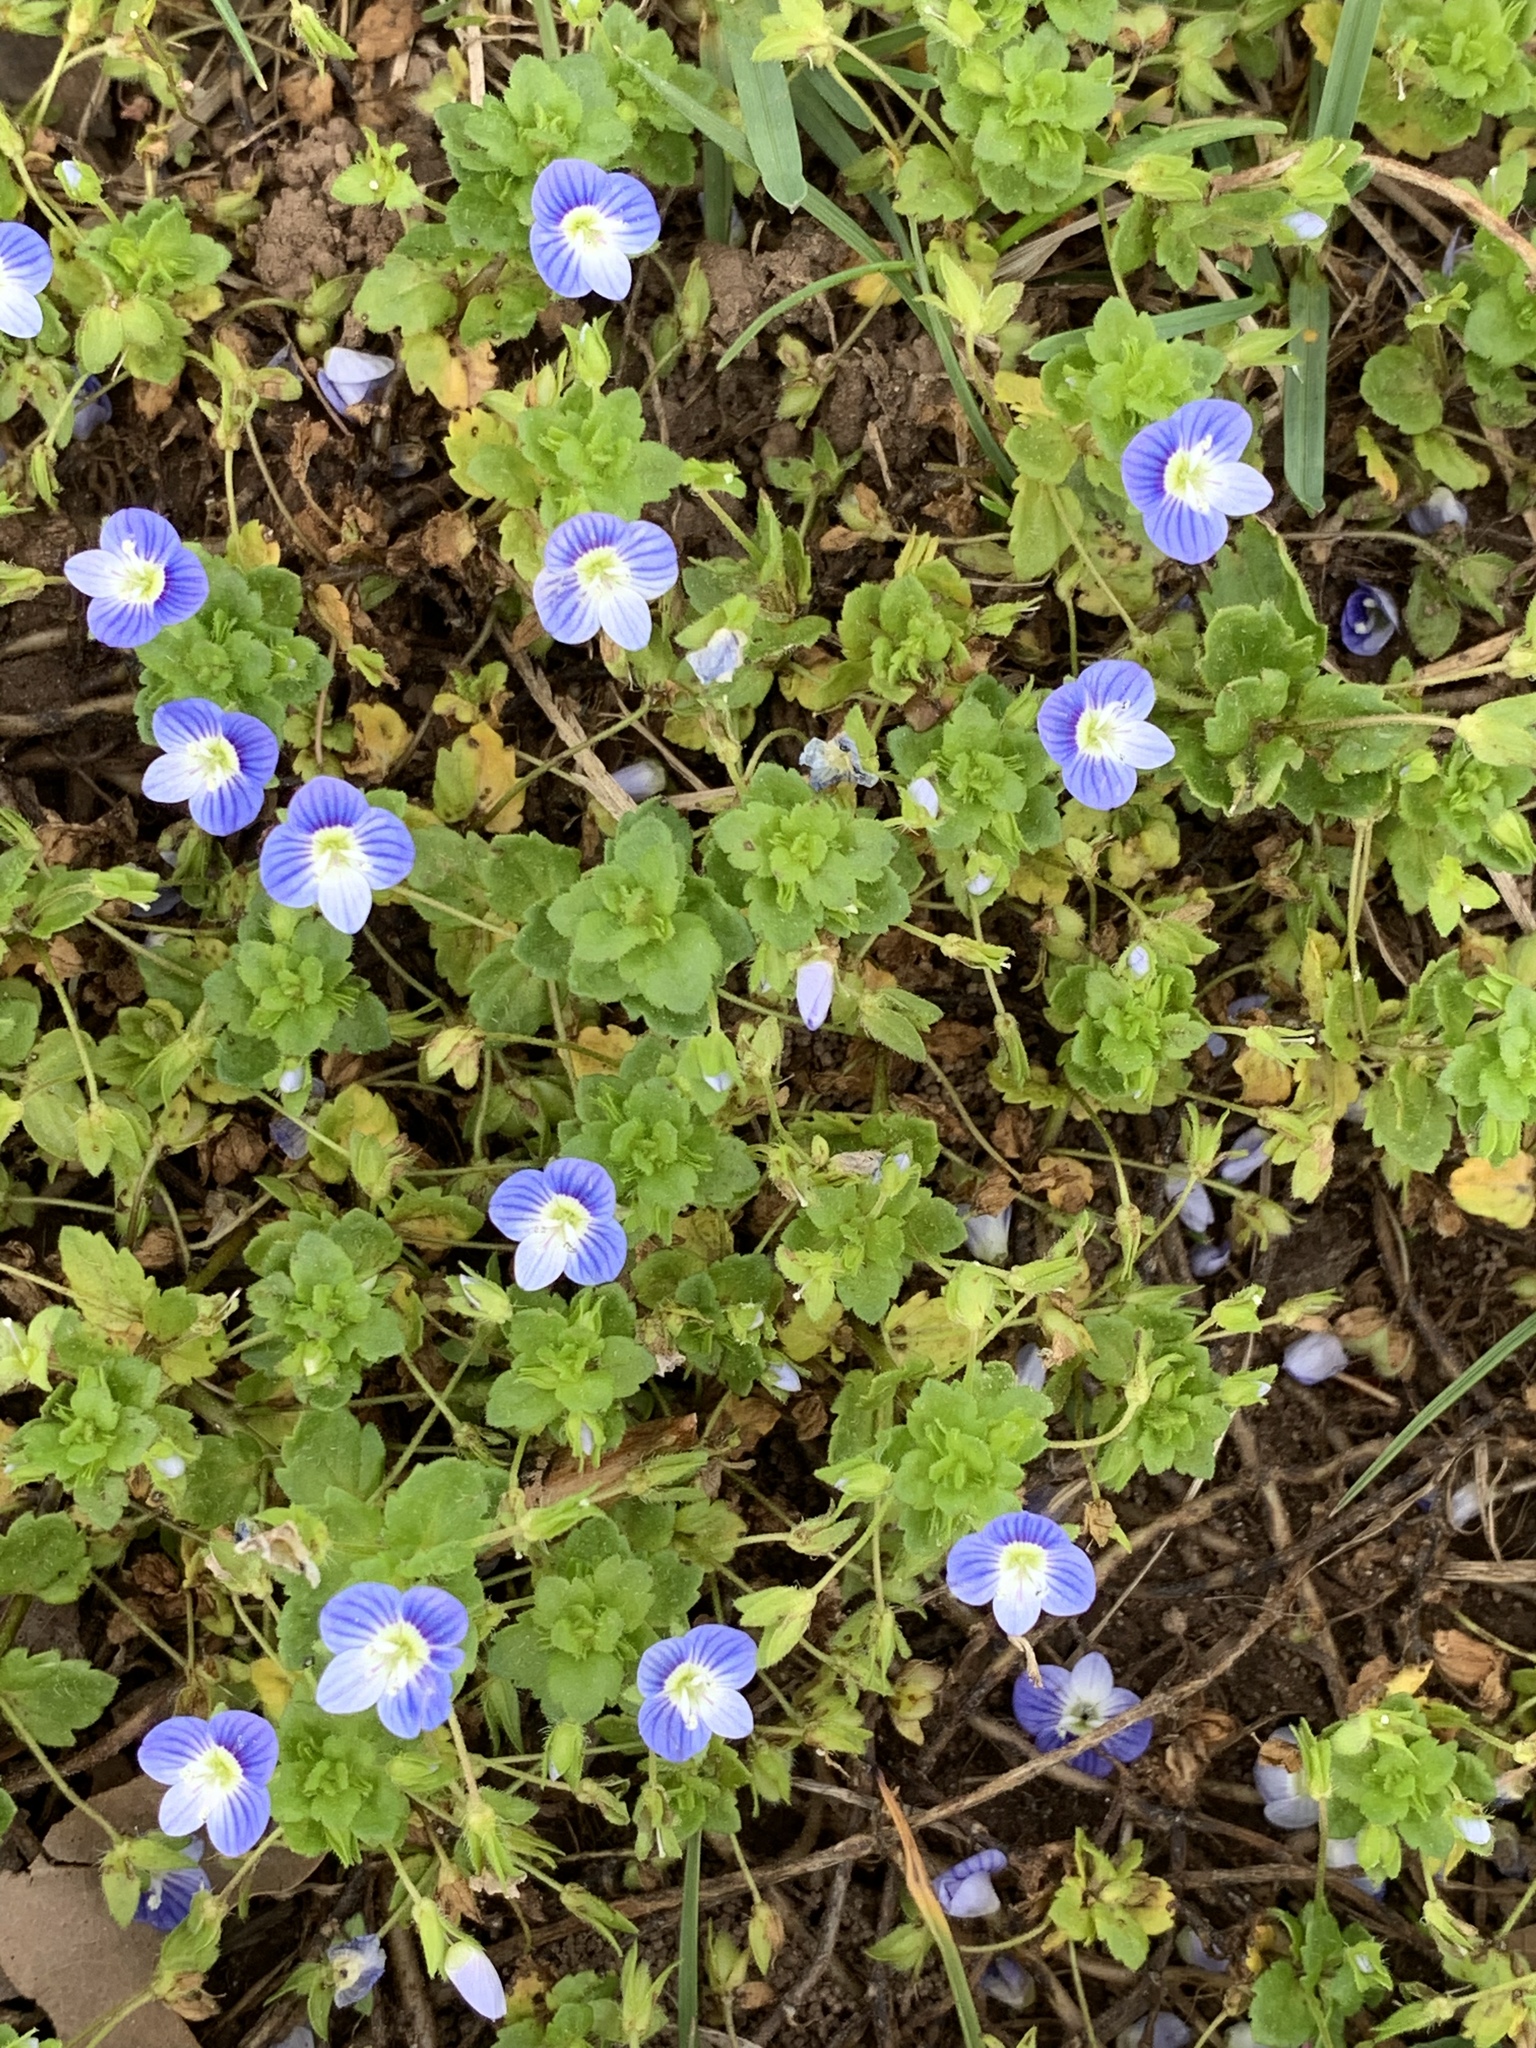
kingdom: Plantae
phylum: Tracheophyta
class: Magnoliopsida
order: Lamiales
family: Plantaginaceae
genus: Veronica
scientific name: Veronica persica
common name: Common field-speedwell
